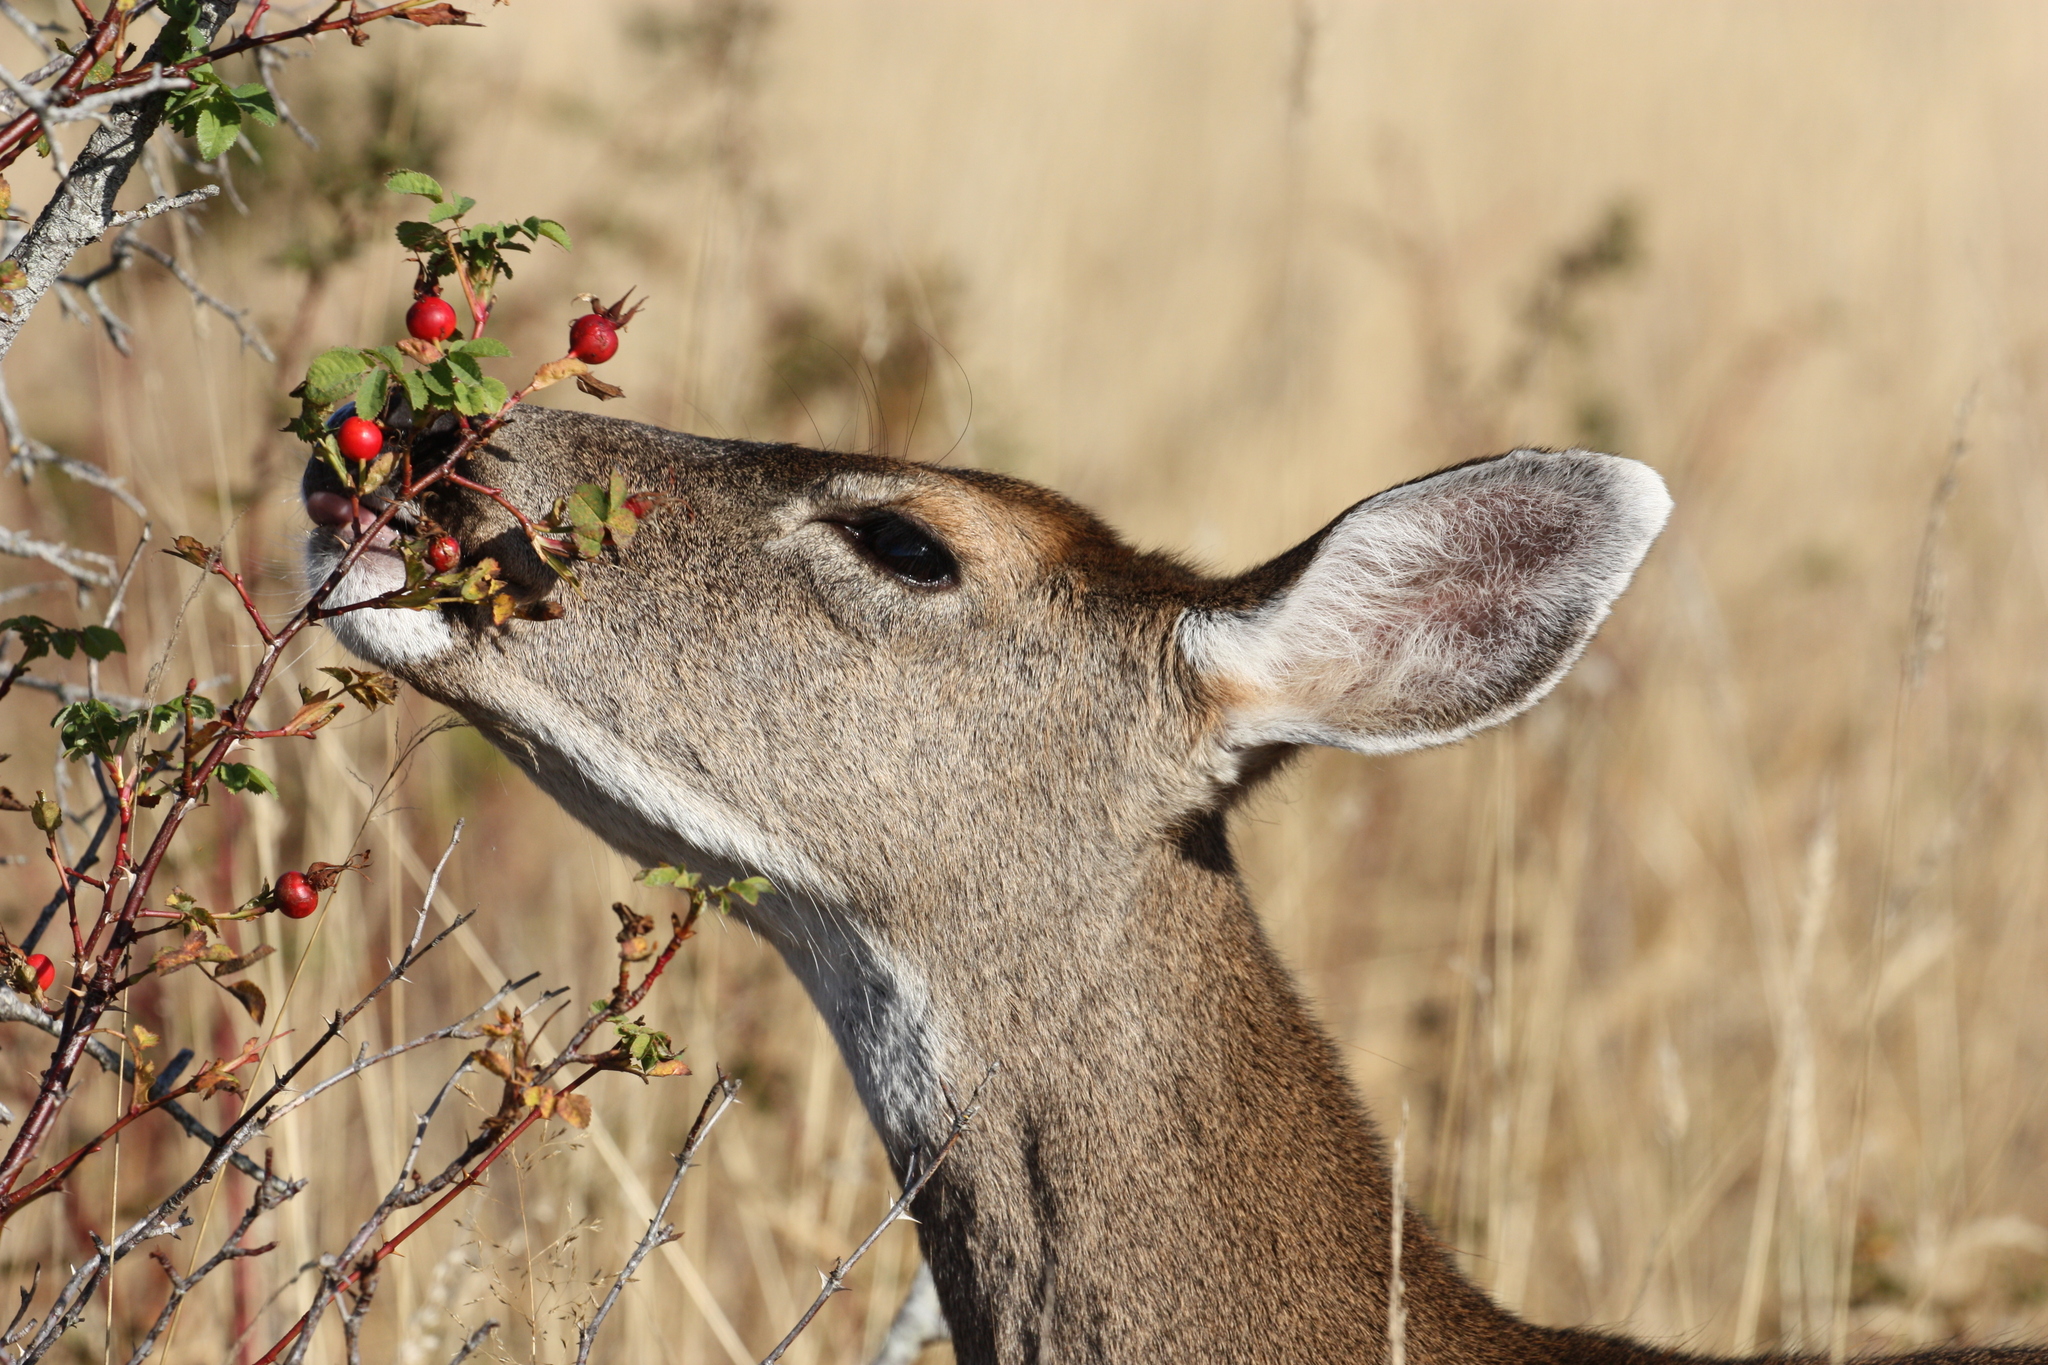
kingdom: Animalia
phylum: Chordata
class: Mammalia
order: Artiodactyla
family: Cervidae
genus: Odocoileus
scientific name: Odocoileus hemionus
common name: Mule deer
